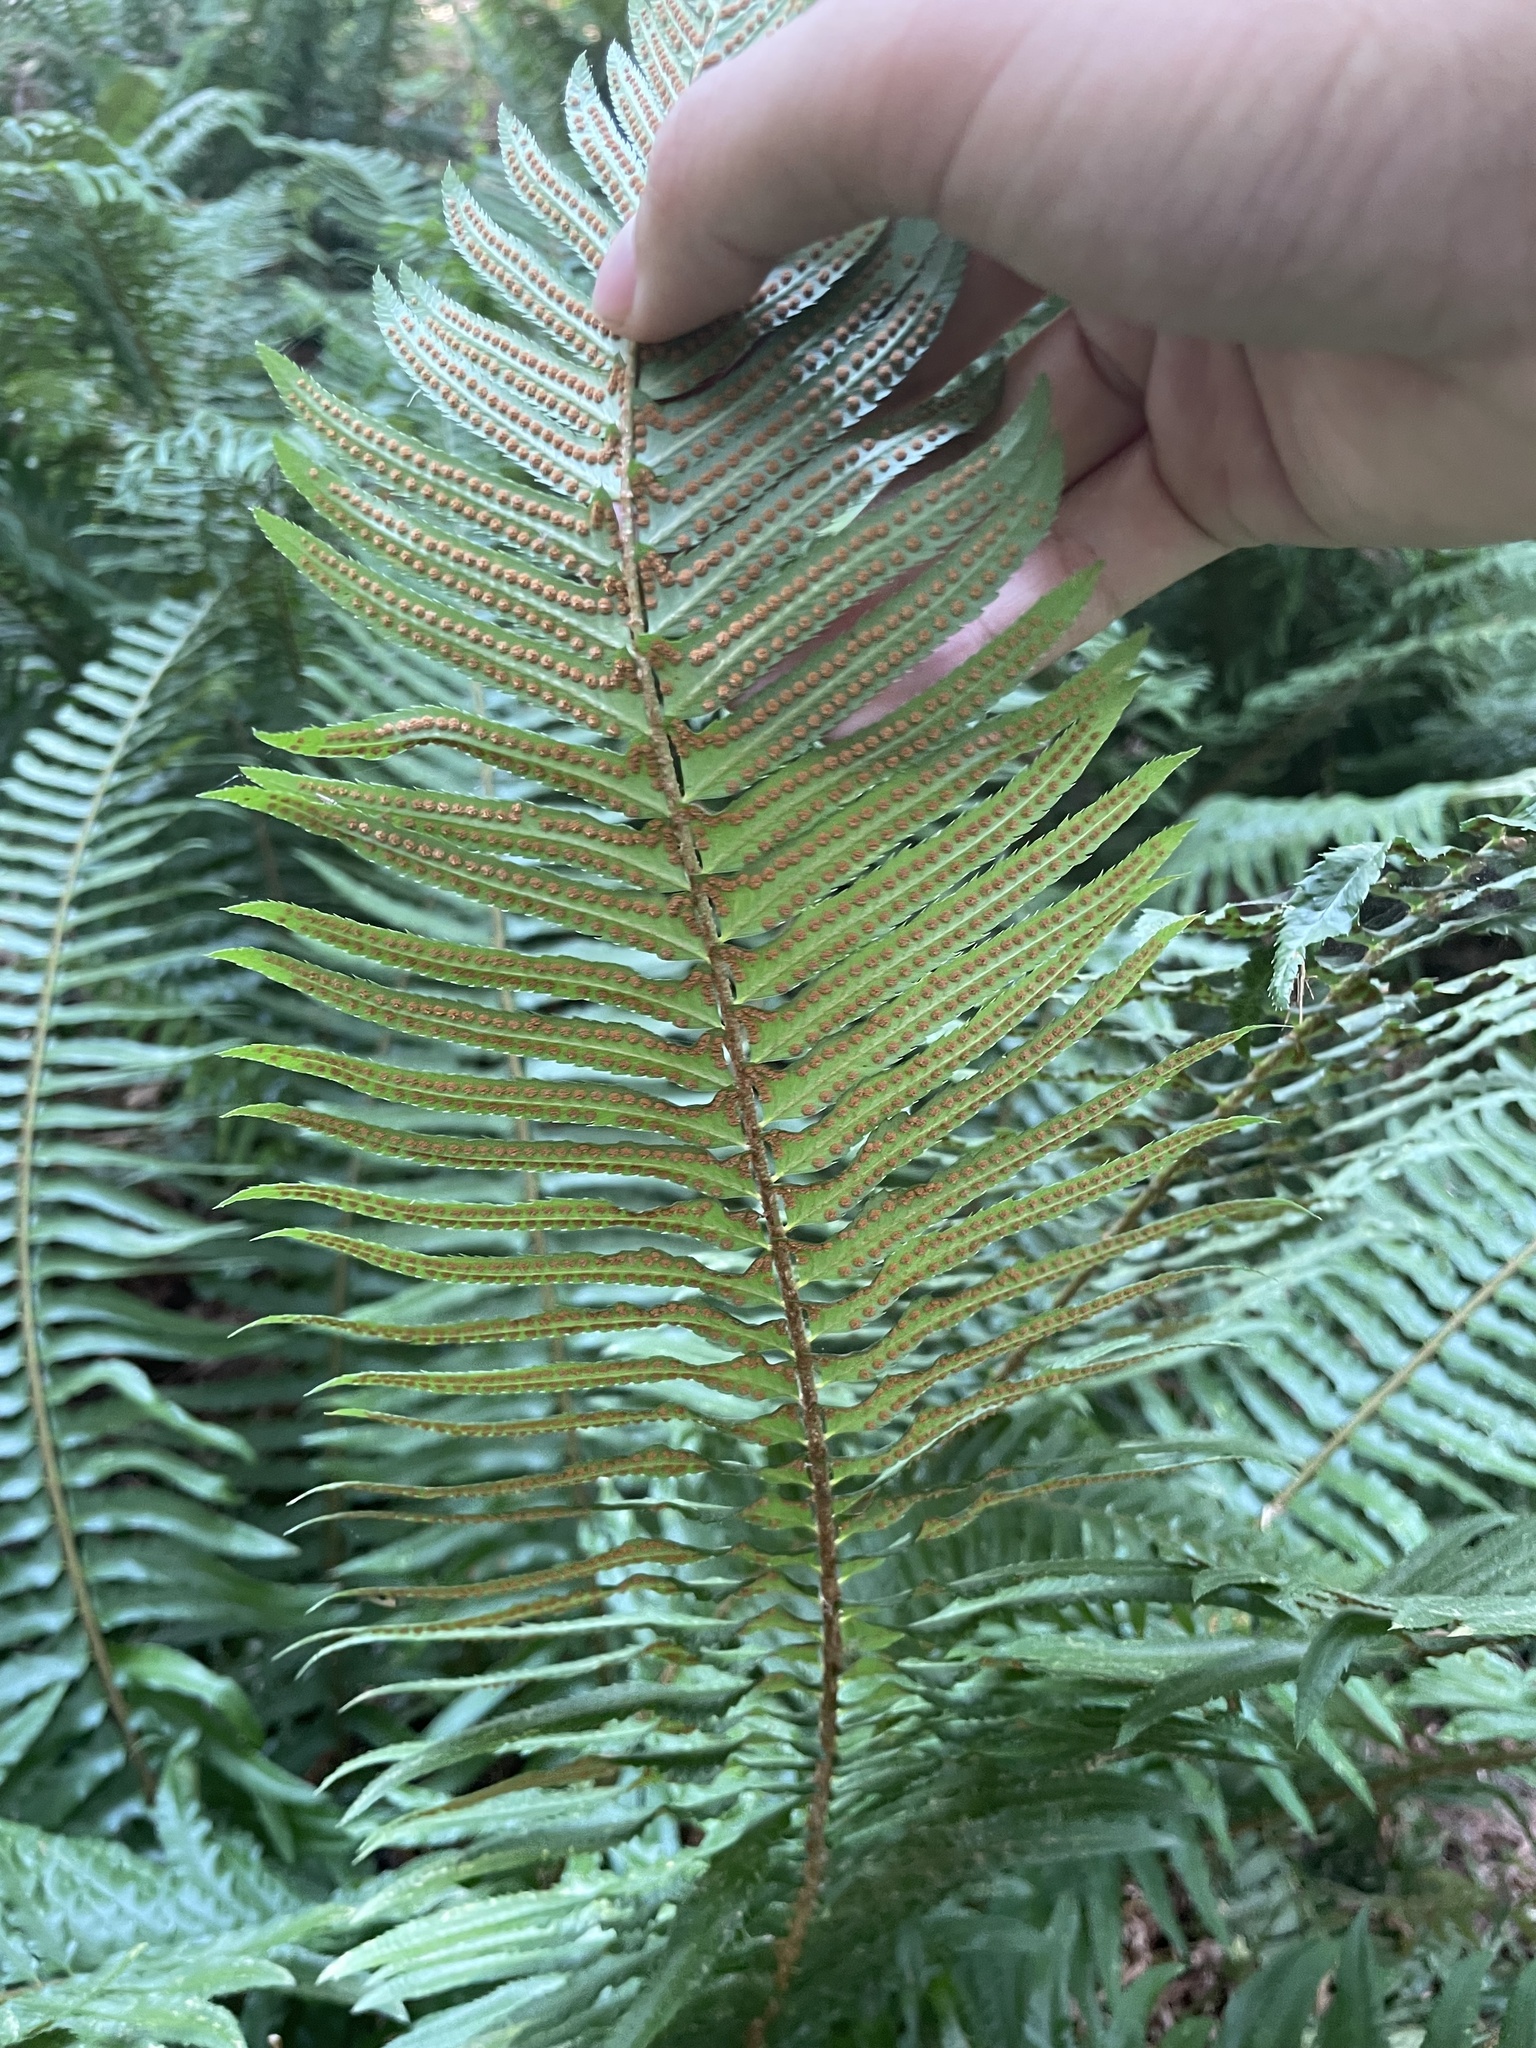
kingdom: Plantae
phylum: Tracheophyta
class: Polypodiopsida
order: Polypodiales
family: Dryopteridaceae
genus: Polystichum
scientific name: Polystichum munitum
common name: Western sword-fern
